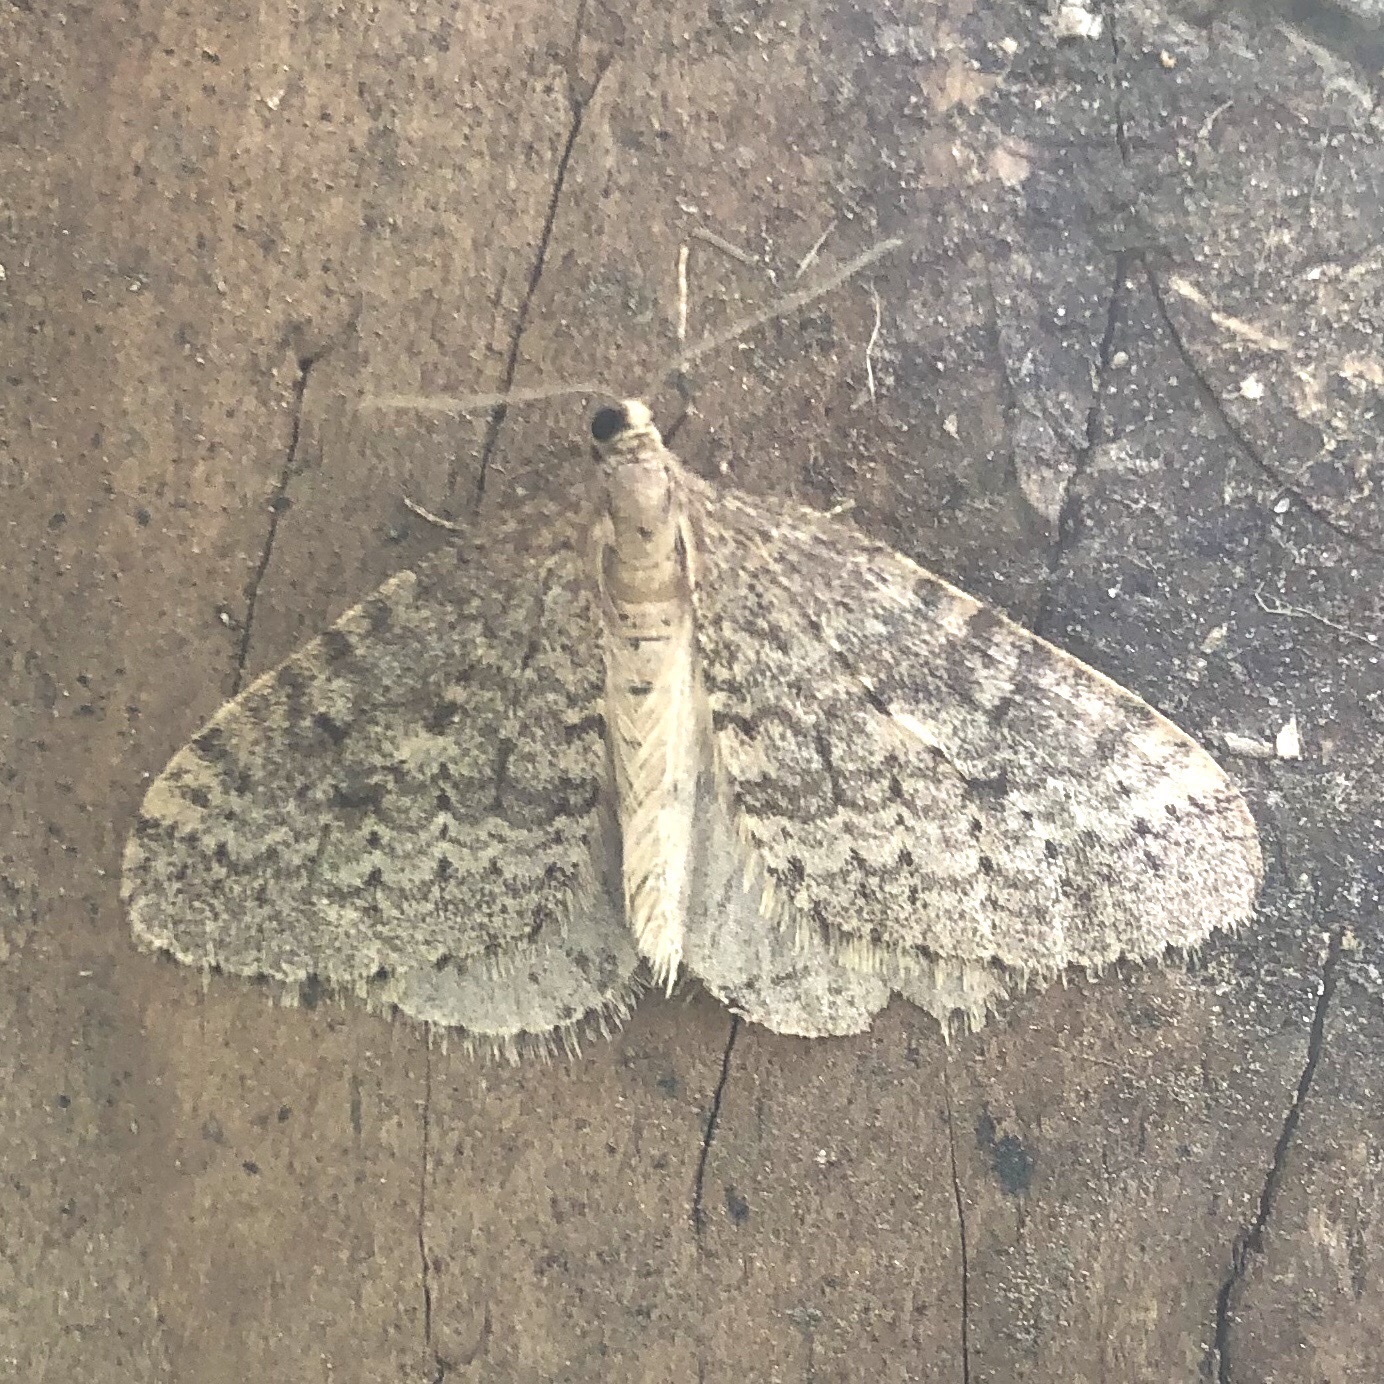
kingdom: Animalia
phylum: Arthropoda
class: Insecta
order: Lepidoptera
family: Geometridae
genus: Operophtera
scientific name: Operophtera bruceata
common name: Bruce spanworm
